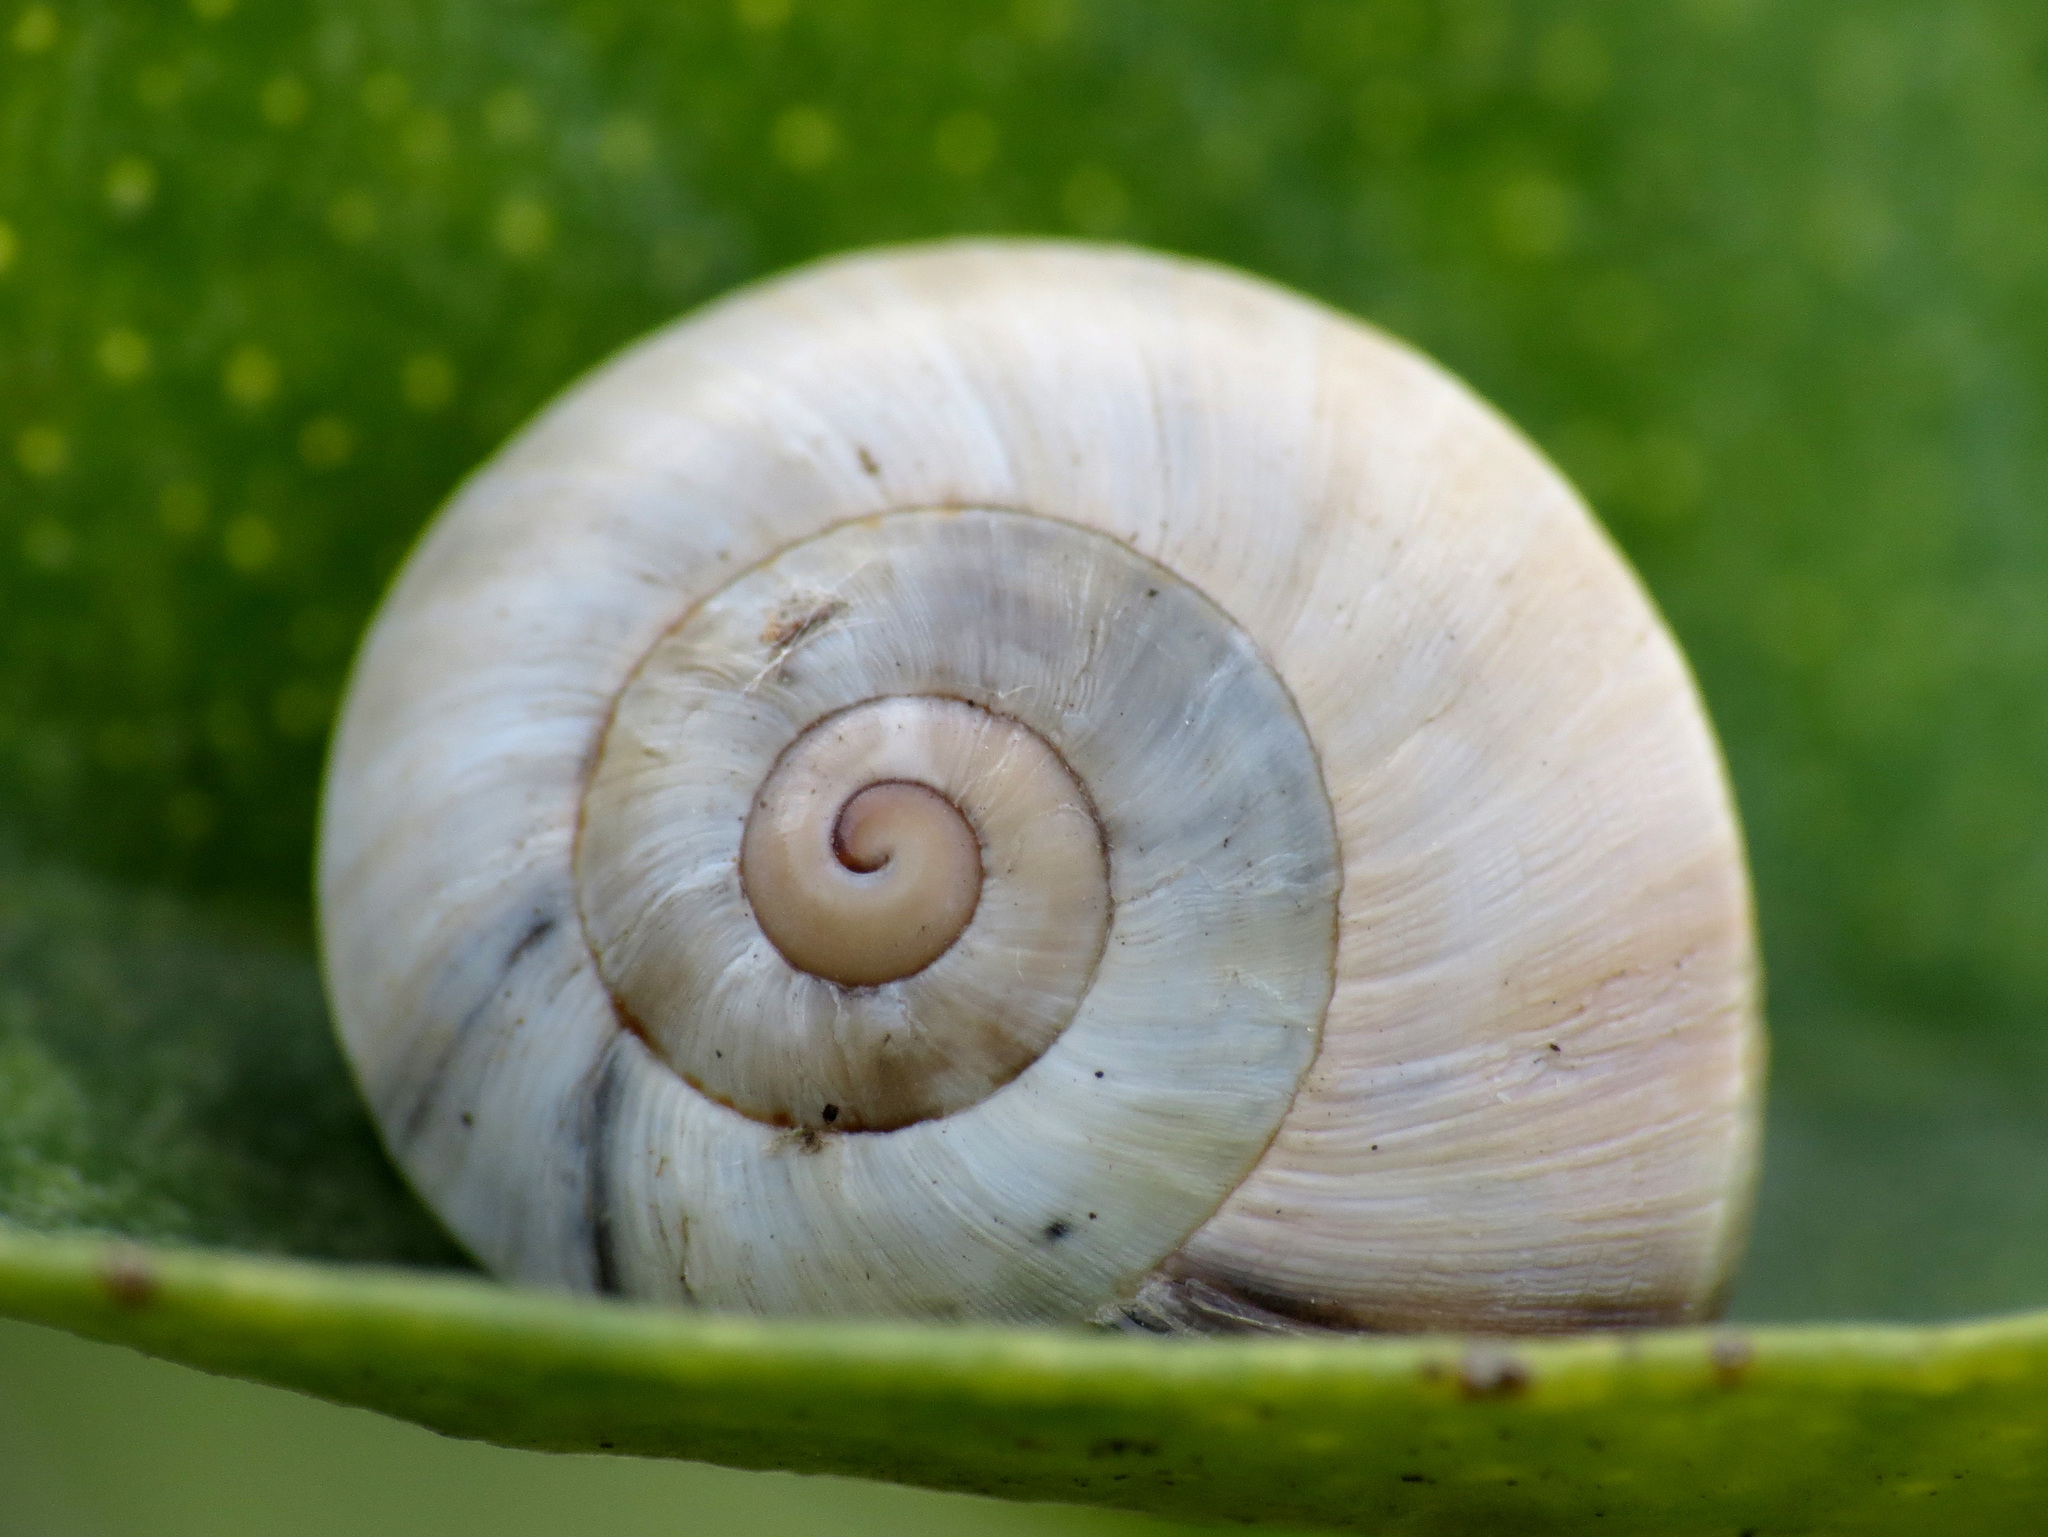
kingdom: Animalia
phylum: Mollusca
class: Gastropoda
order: Stylommatophora
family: Helicidae
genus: Theba
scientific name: Theba pisana
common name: White snail
